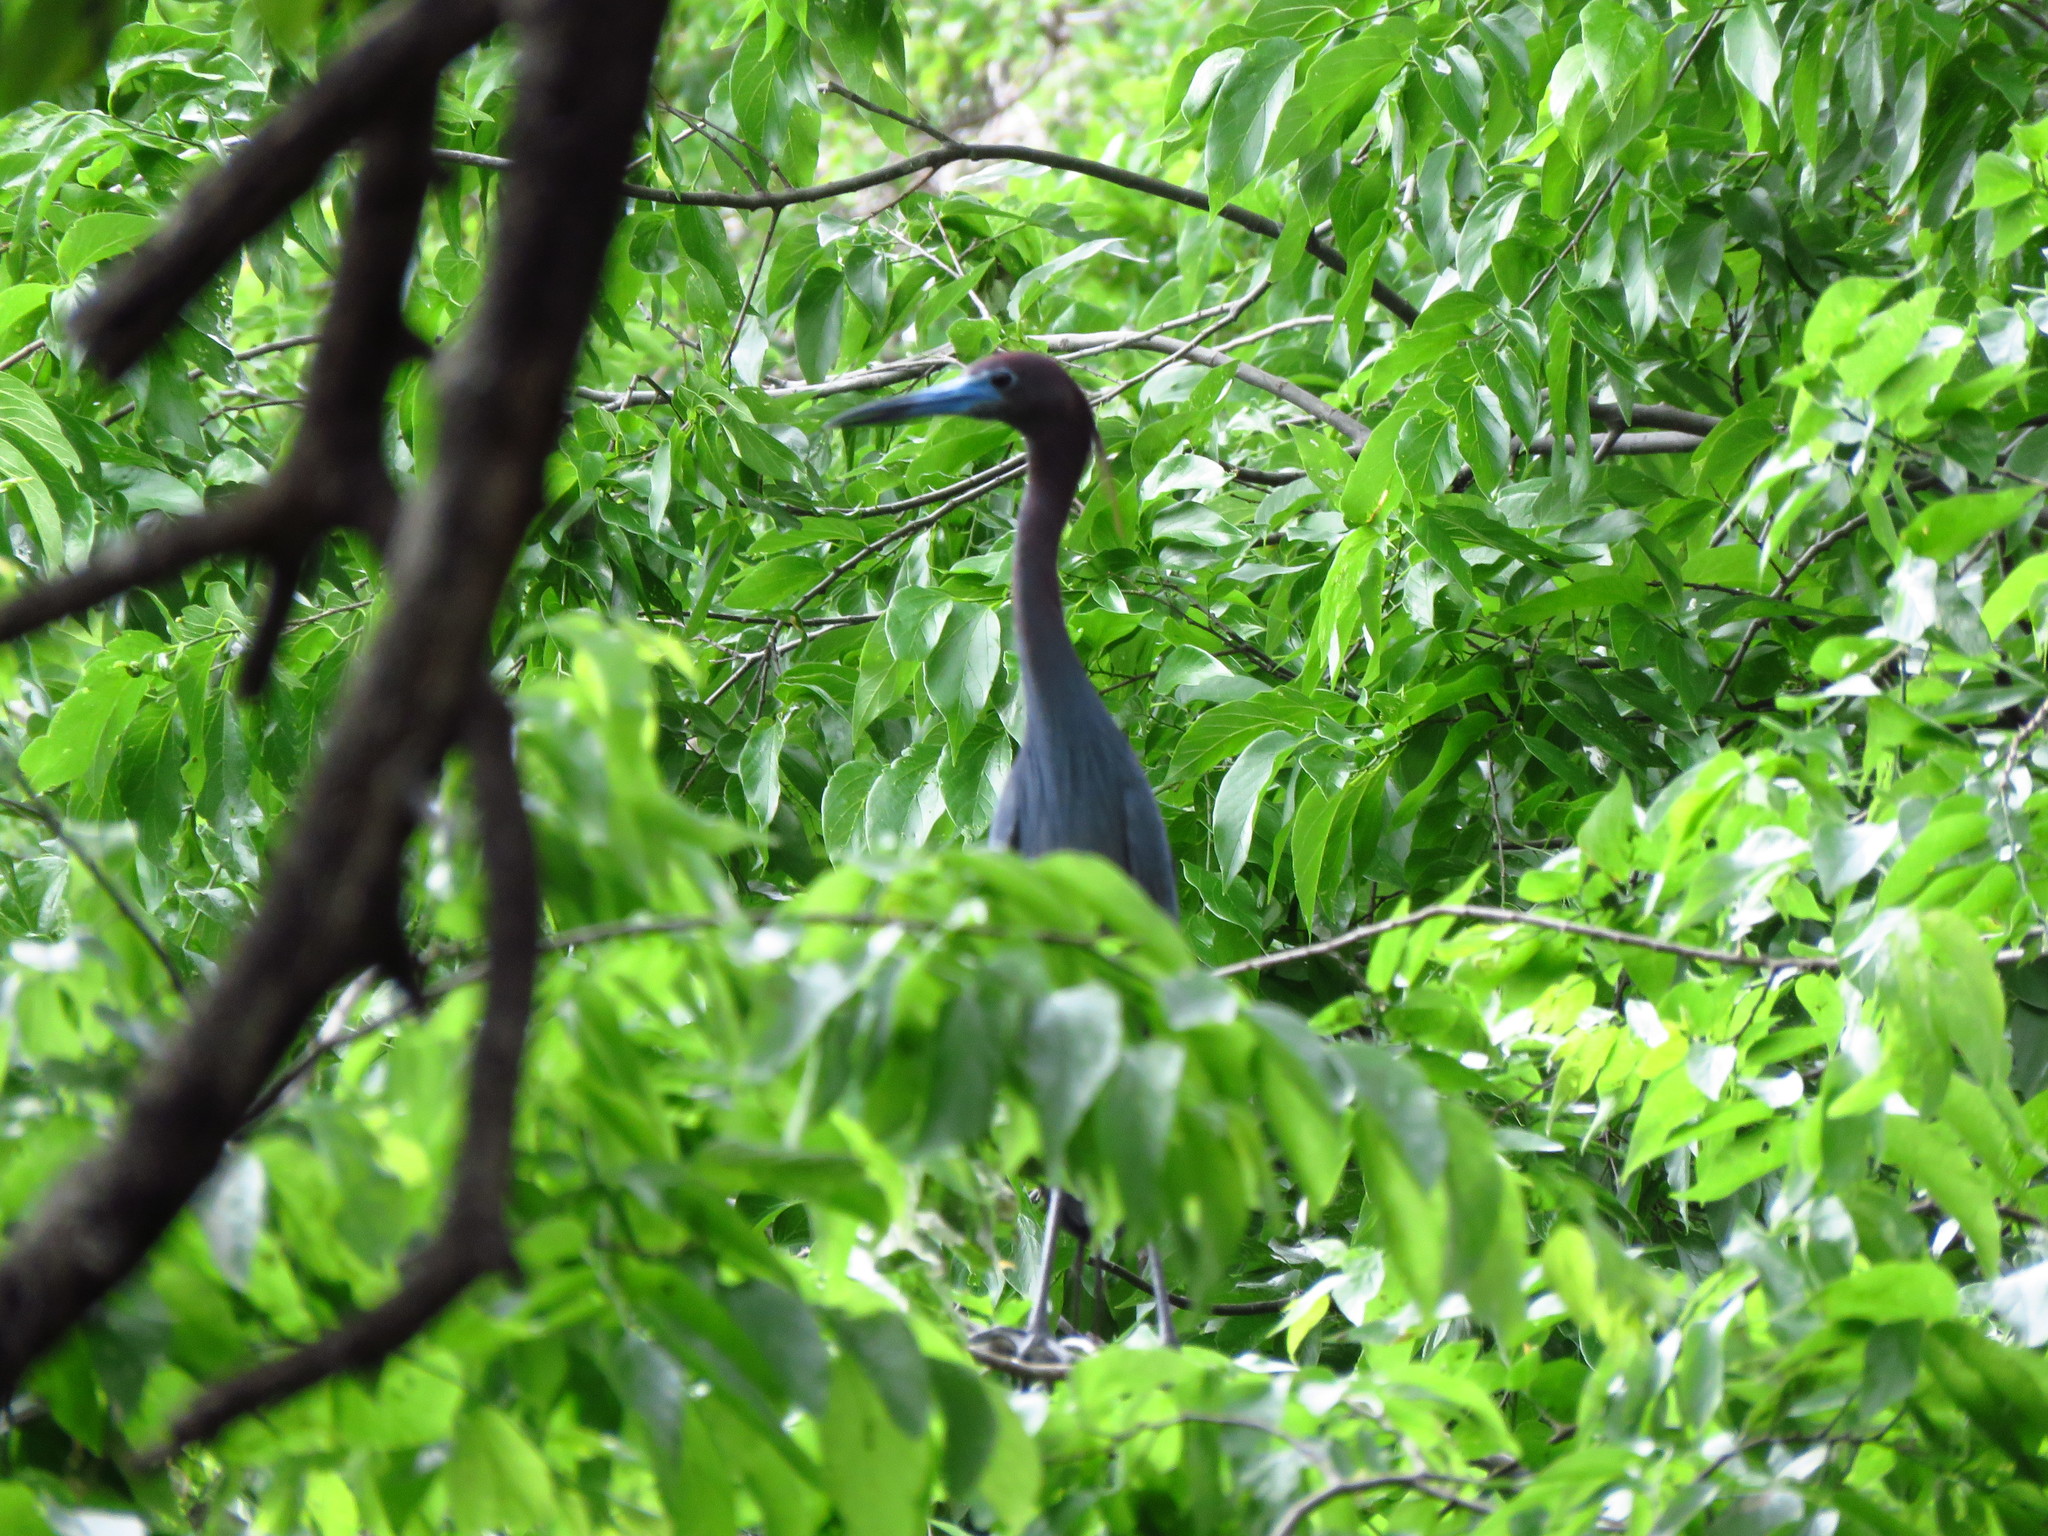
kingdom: Animalia
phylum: Chordata
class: Aves
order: Pelecaniformes
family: Ardeidae
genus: Egretta
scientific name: Egretta caerulea
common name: Little blue heron
